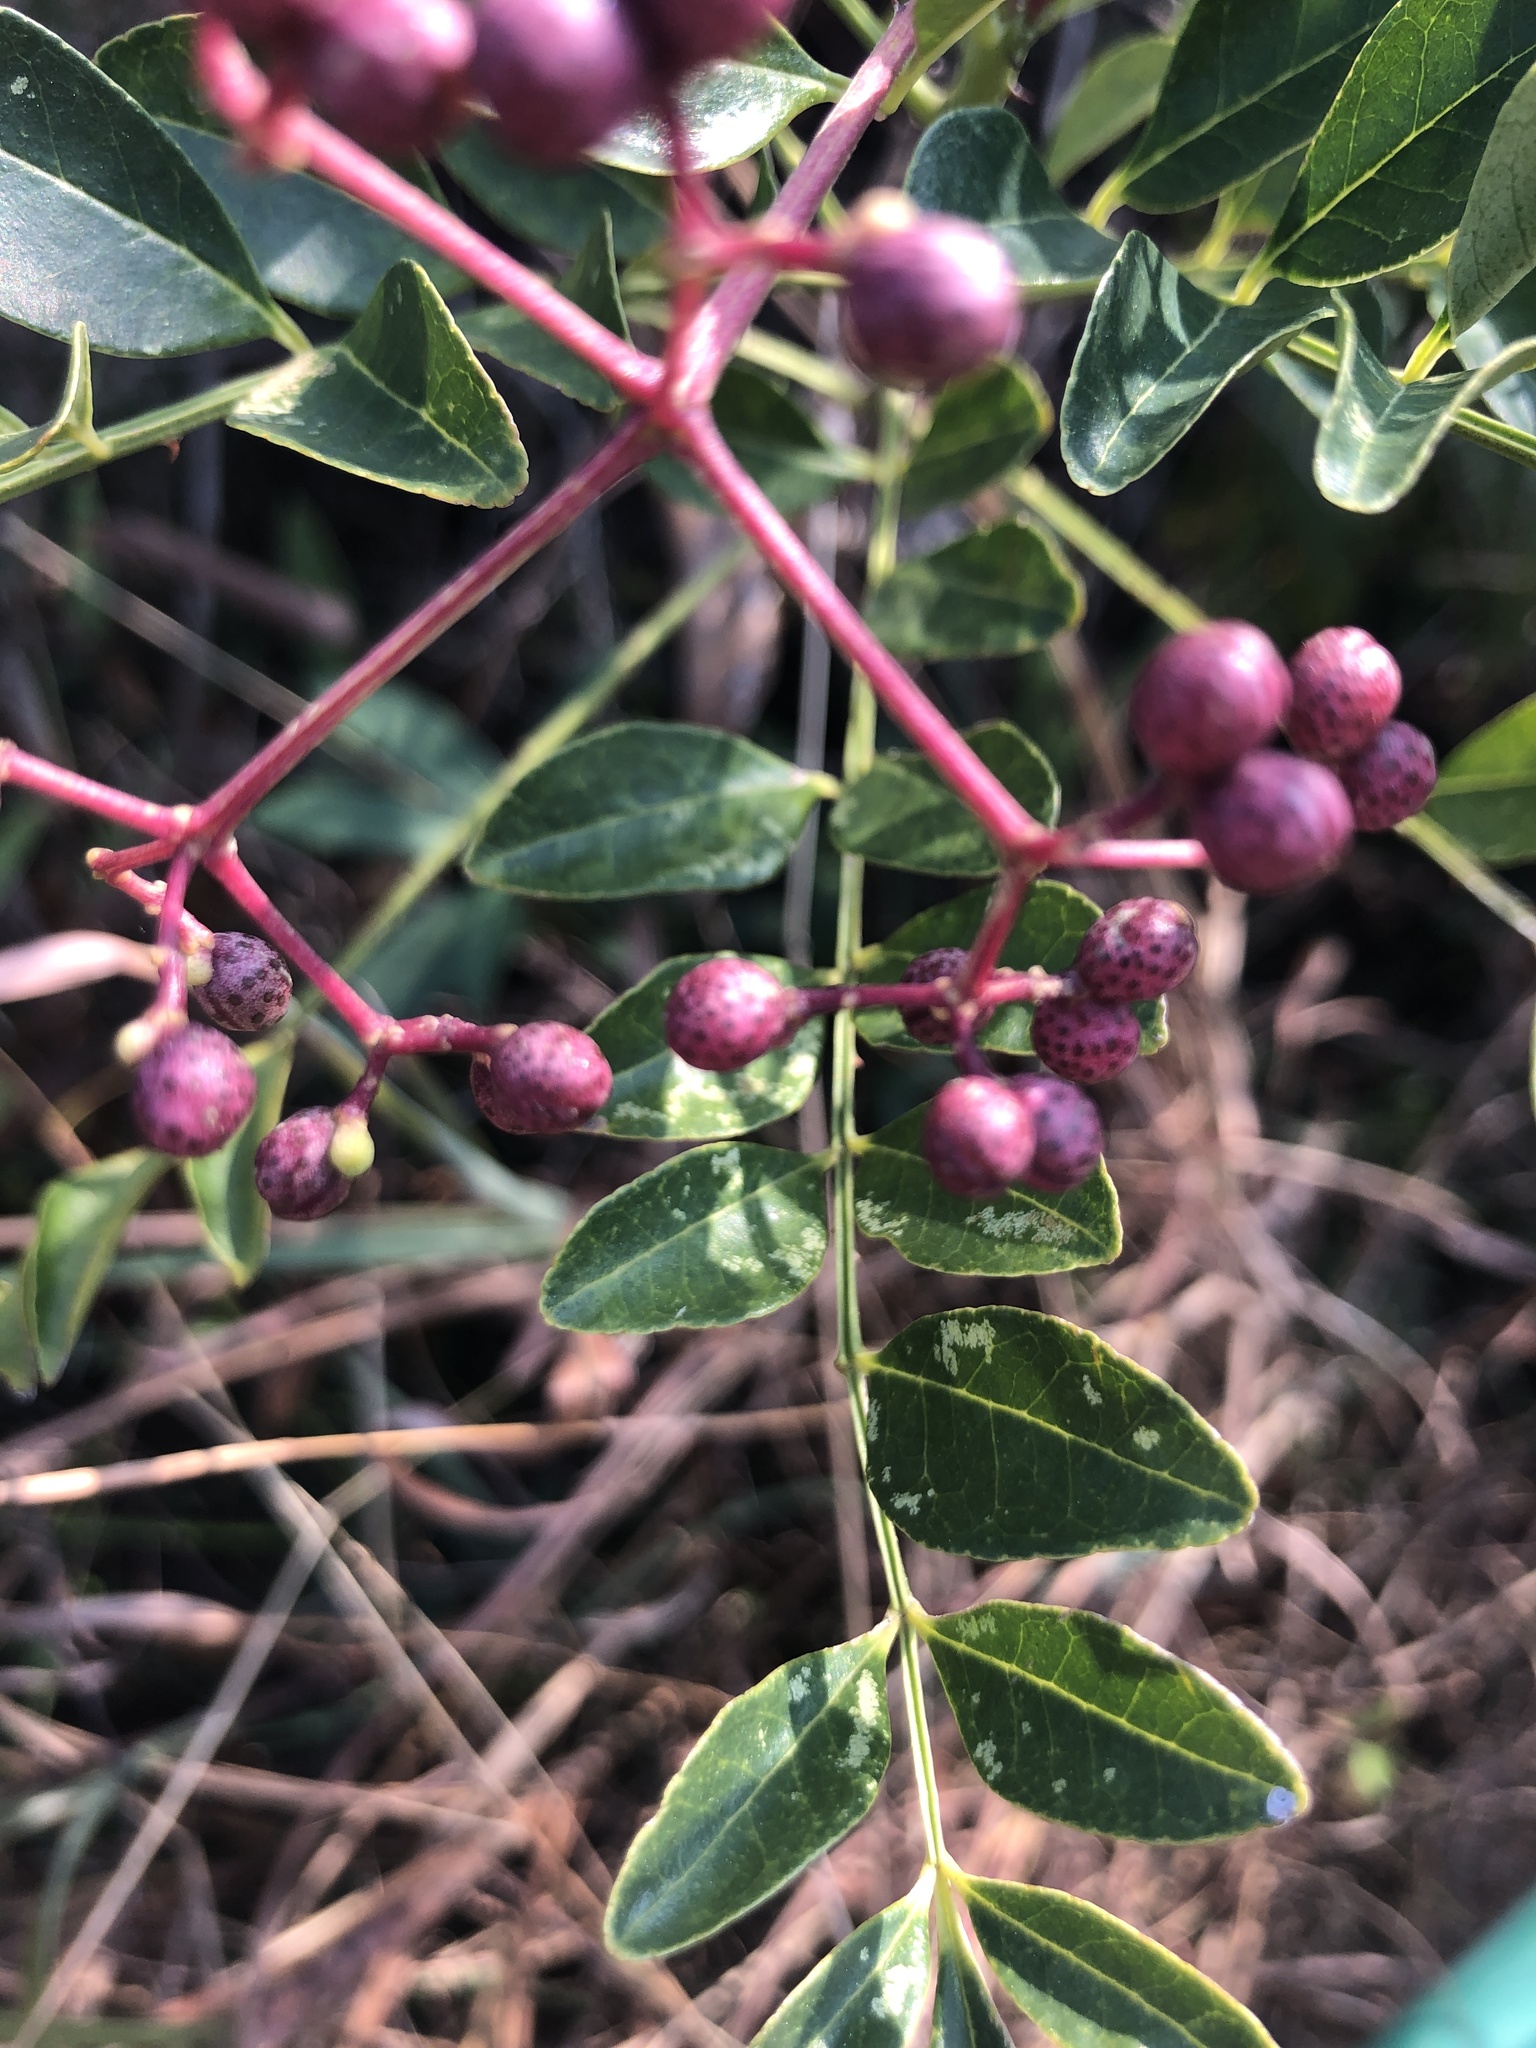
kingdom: Plantae
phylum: Tracheophyta
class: Magnoliopsida
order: Sapindales
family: Rutaceae
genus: Zanthoxylum
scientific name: Zanthoxylum avicennae
